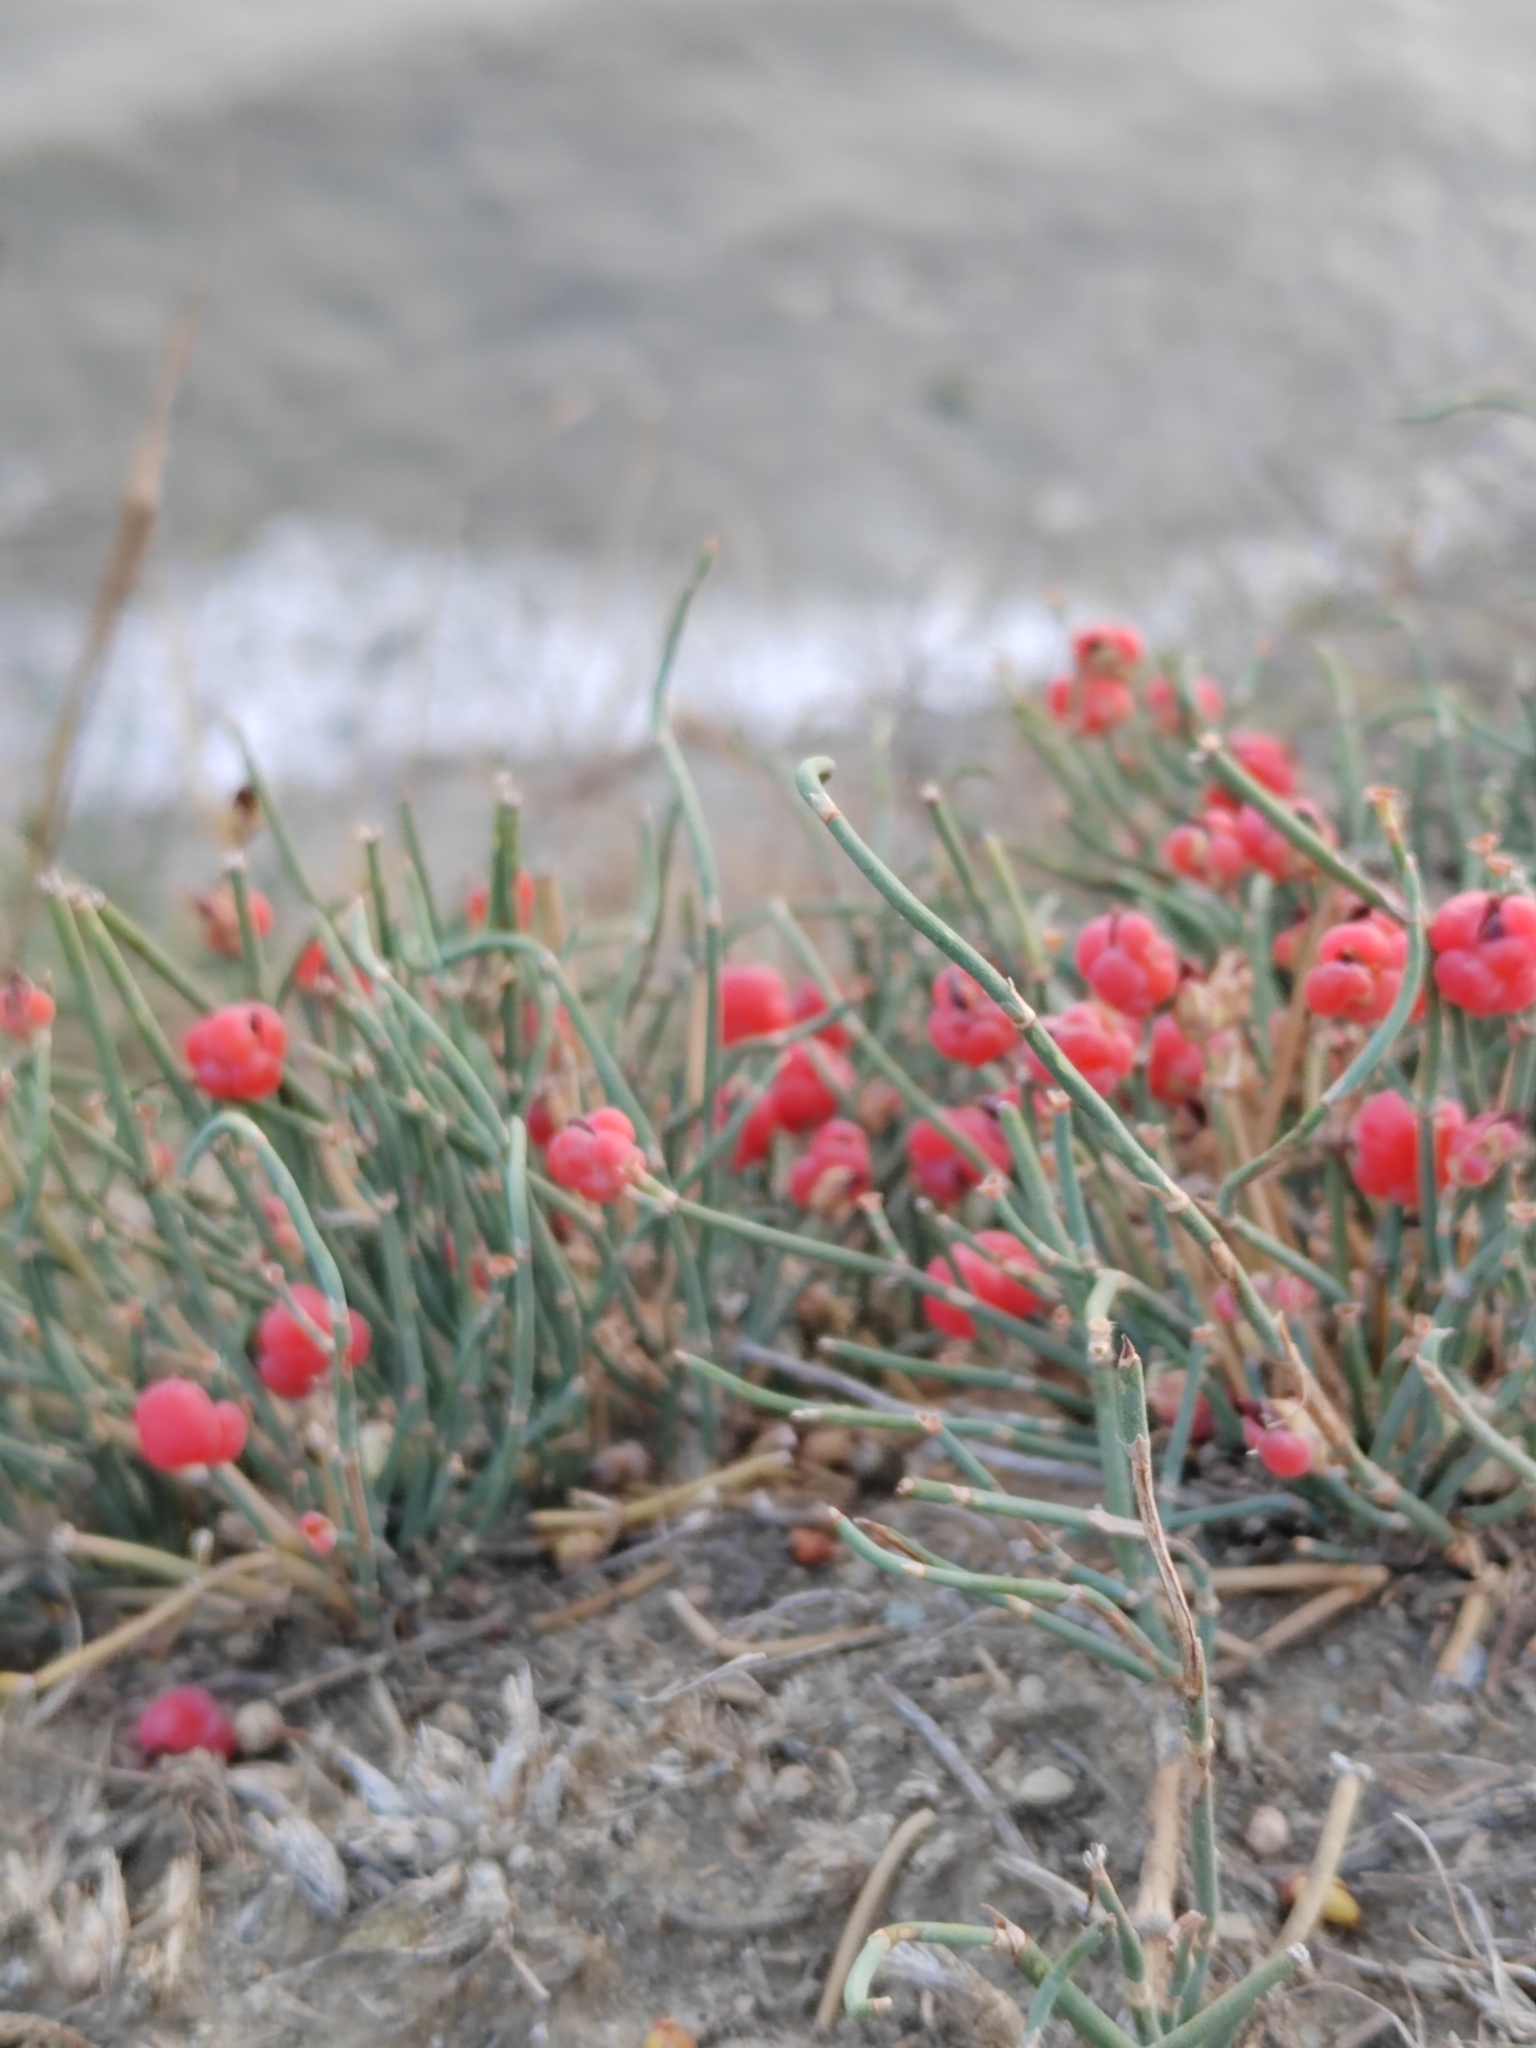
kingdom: Plantae
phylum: Tracheophyta
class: Gnetopsida
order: Ephedrales
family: Ephedraceae
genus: Ephedra
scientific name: Ephedra distachya
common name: Sea grape
